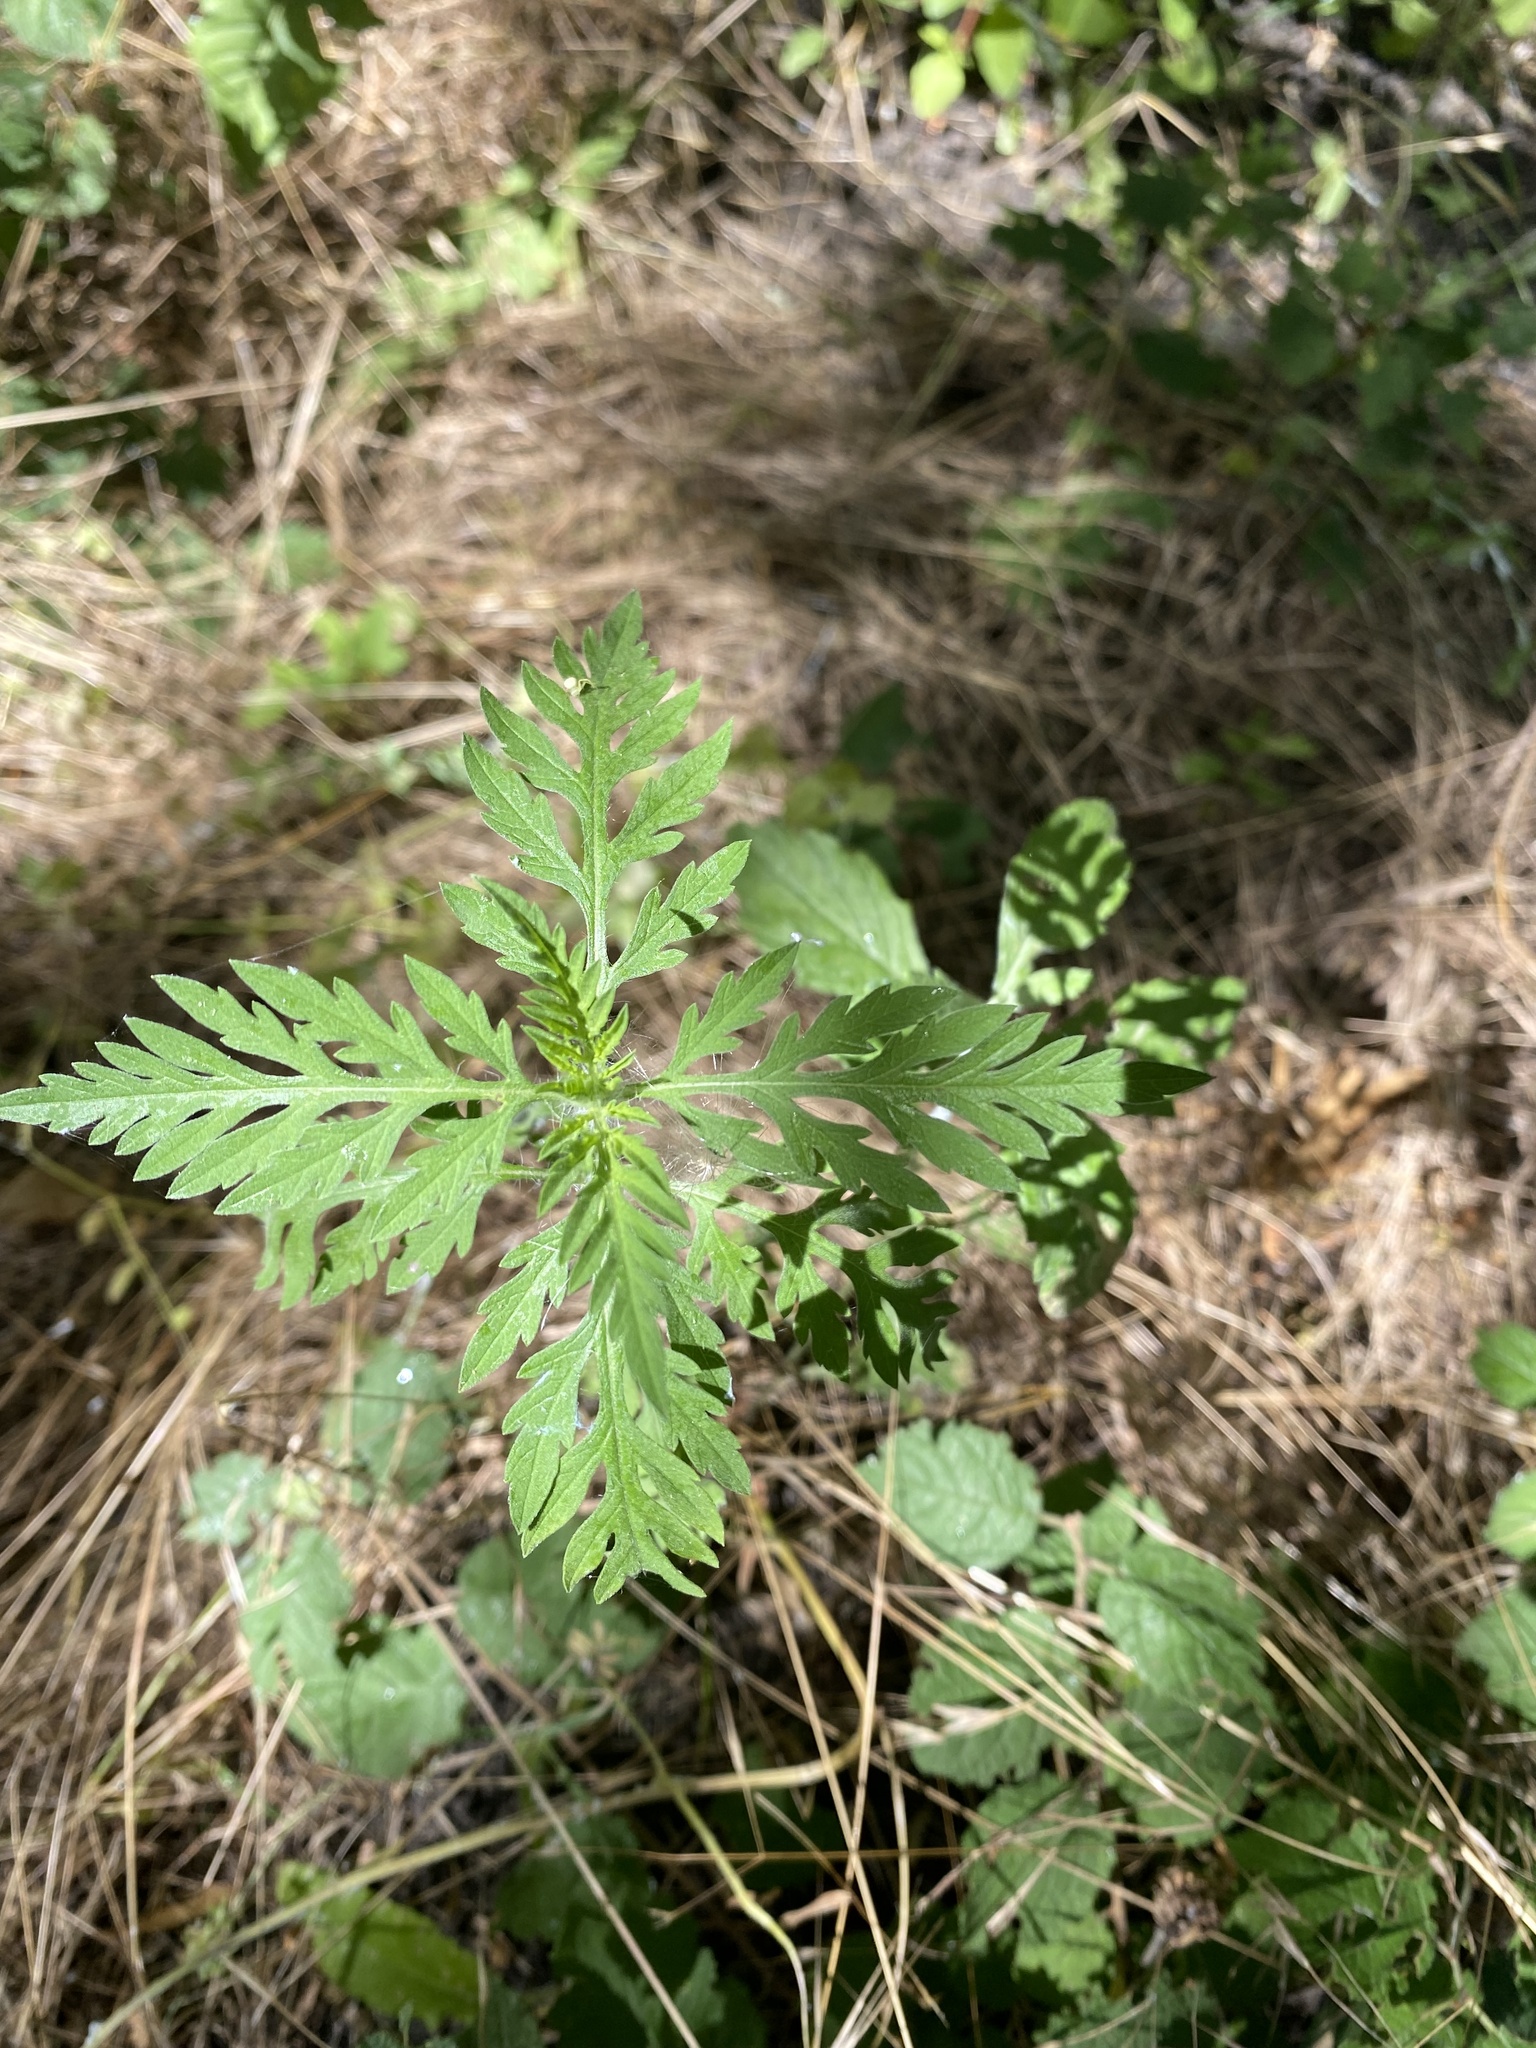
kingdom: Plantae
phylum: Tracheophyta
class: Magnoliopsida
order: Asterales
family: Asteraceae
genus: Ambrosia
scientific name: Ambrosia artemisiifolia
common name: Annual ragweed
